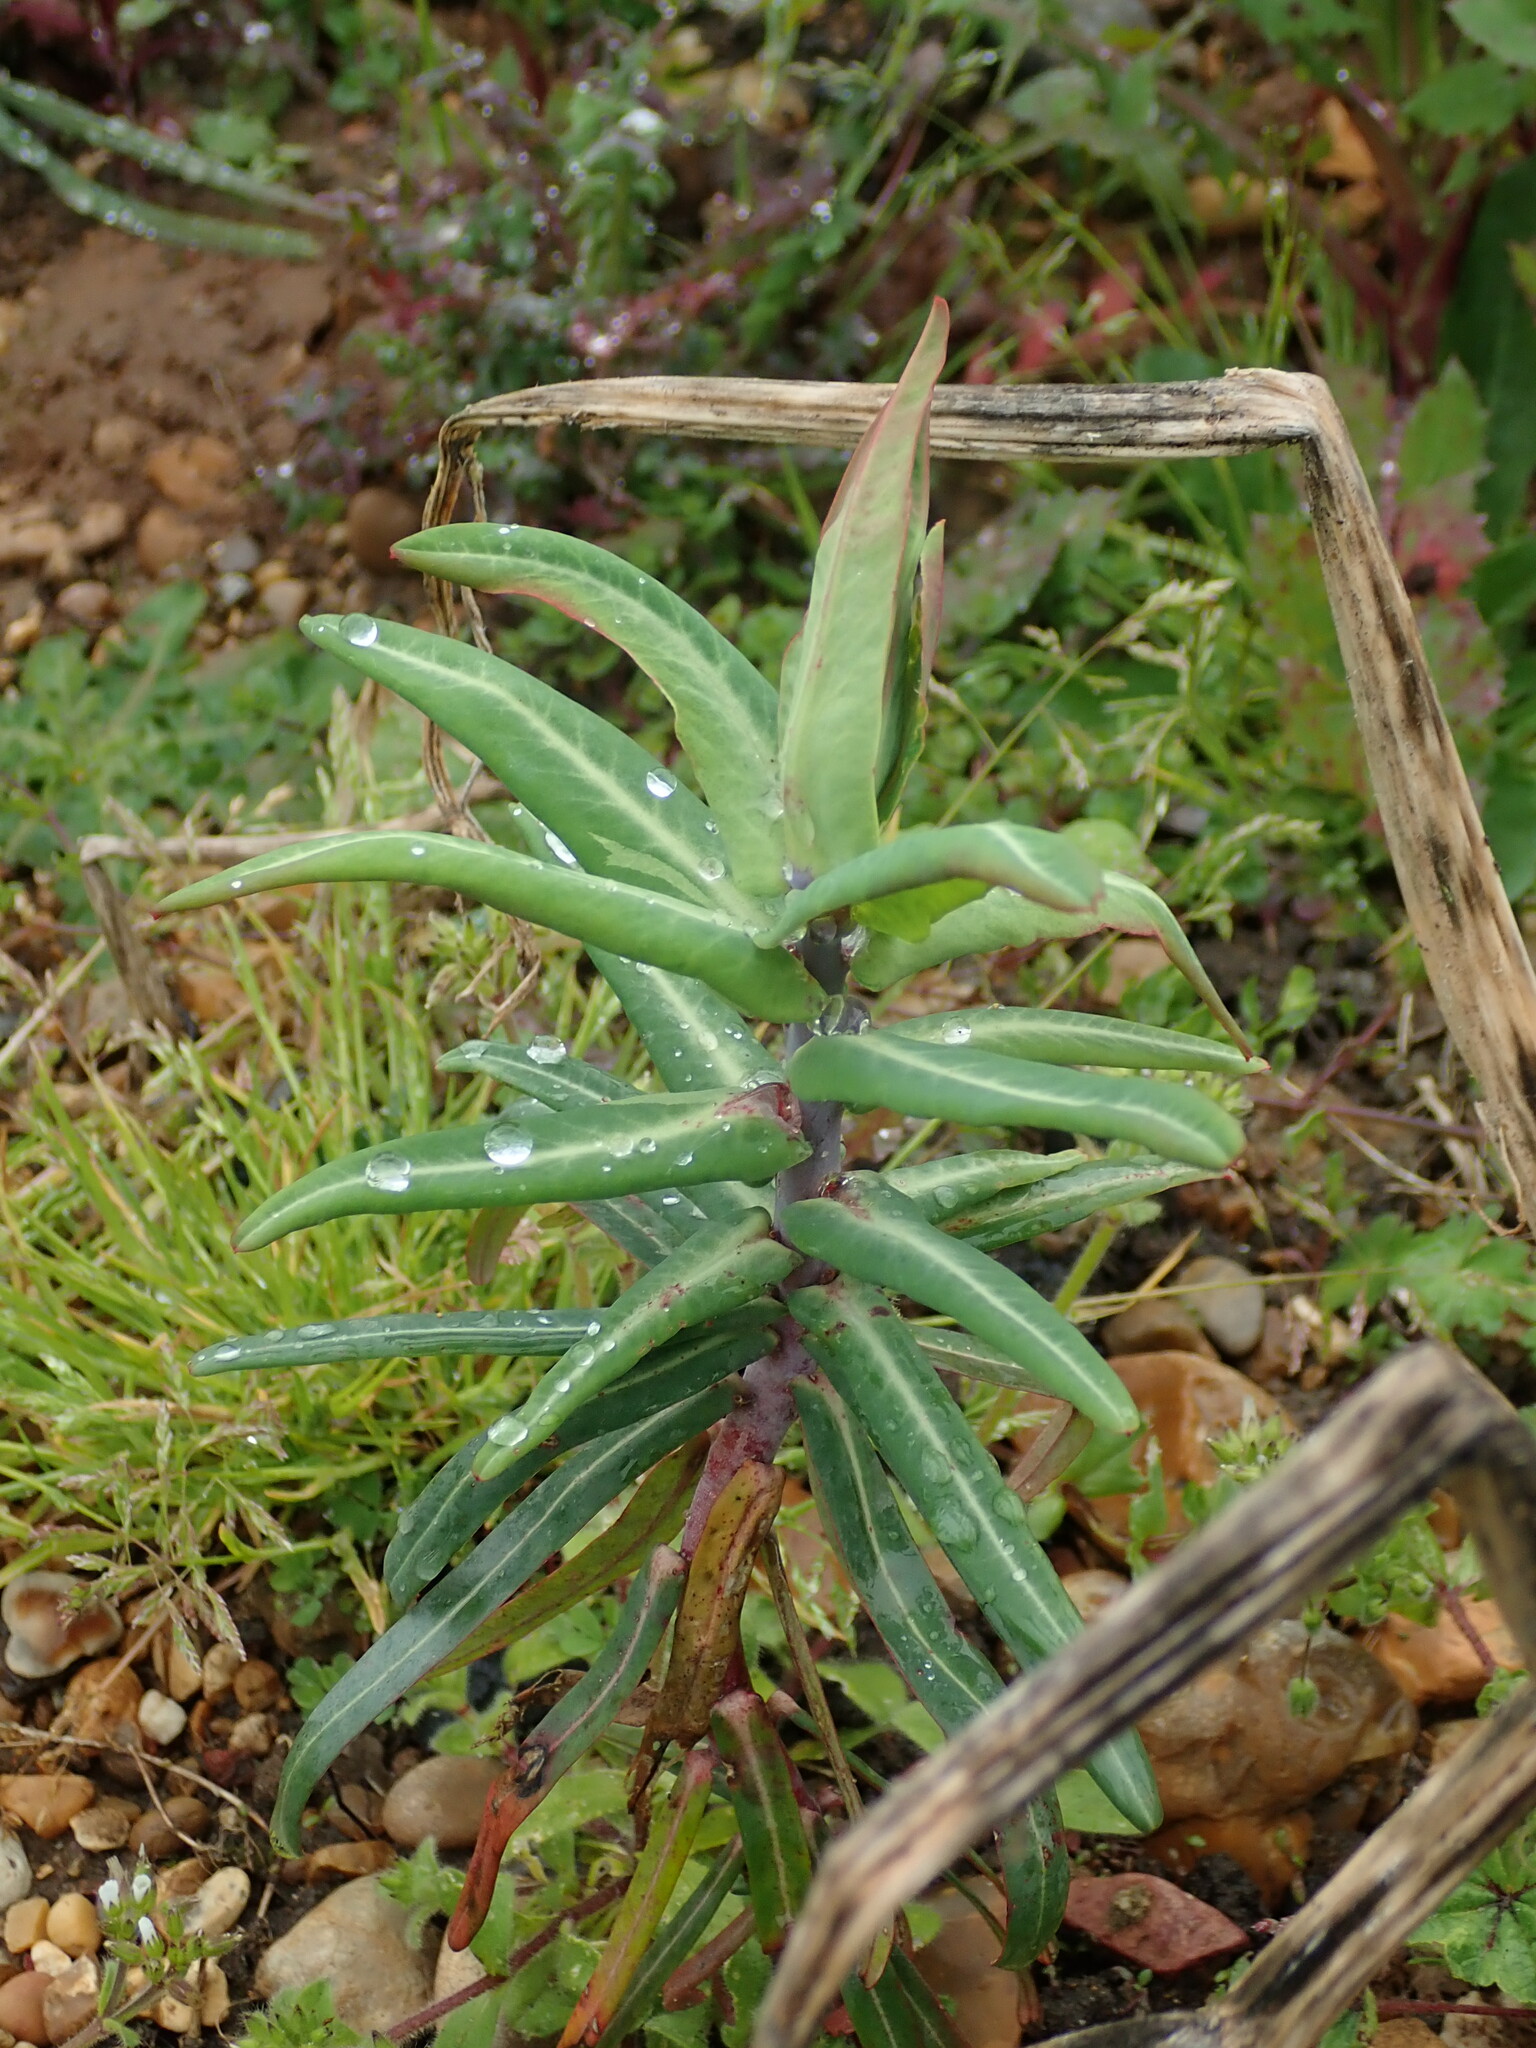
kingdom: Plantae
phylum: Tracheophyta
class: Magnoliopsida
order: Malpighiales
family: Euphorbiaceae
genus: Euphorbia
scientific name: Euphorbia lathyris
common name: Caper spurge
